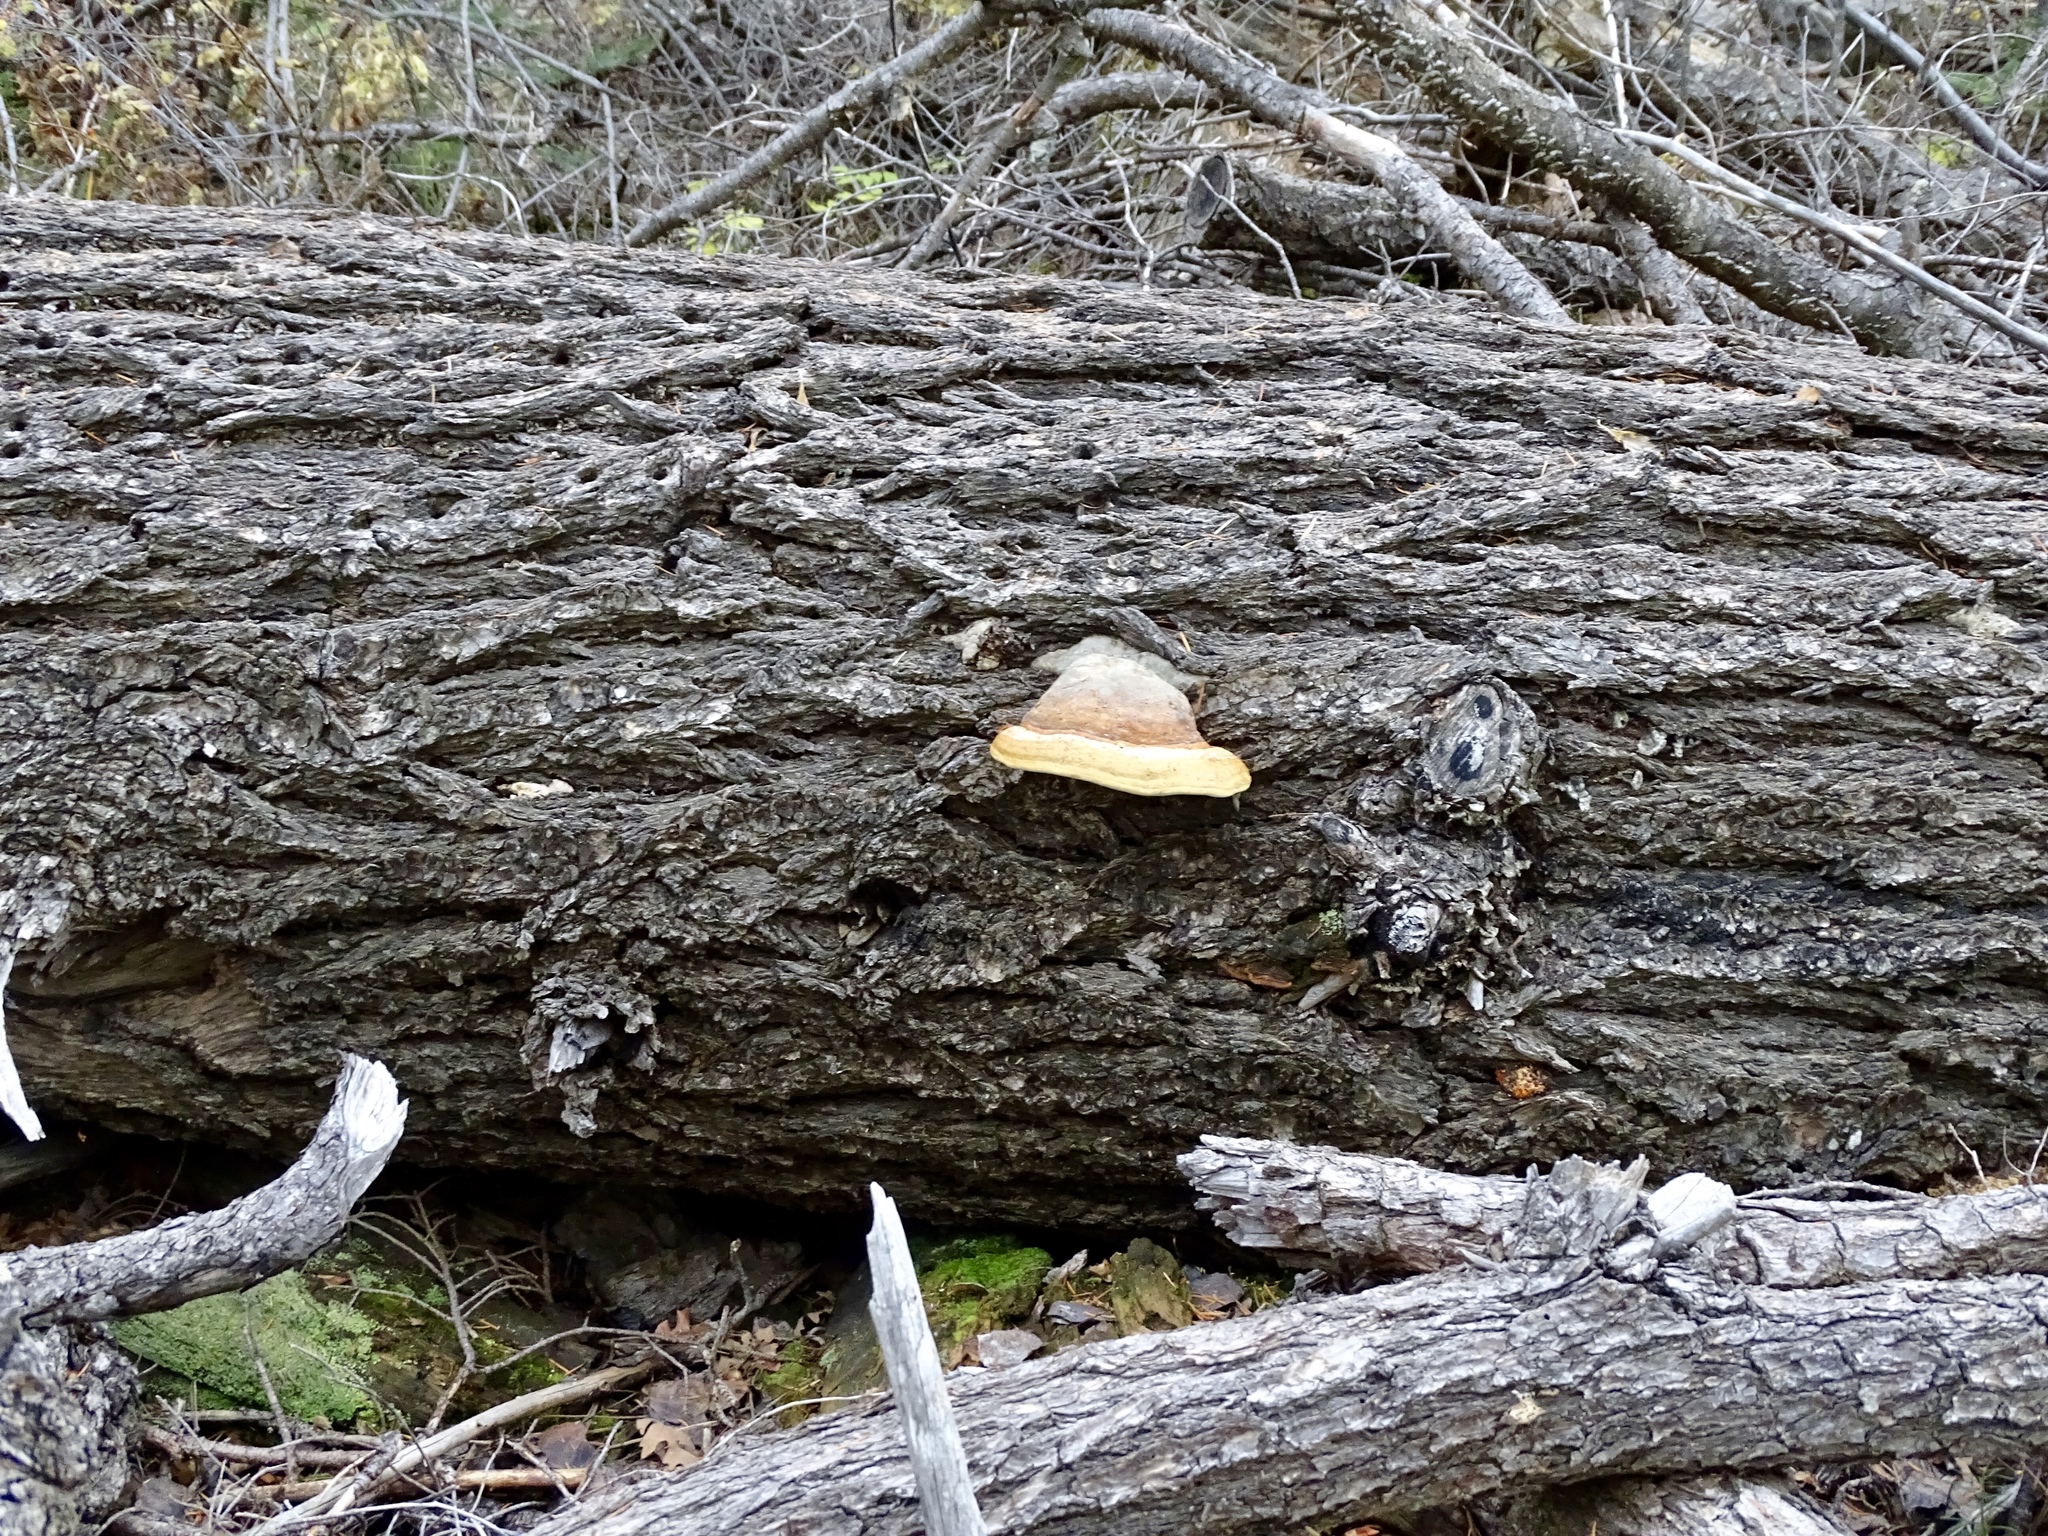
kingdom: Fungi
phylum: Basidiomycota
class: Agaricomycetes
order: Polyporales
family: Fomitopsidaceae
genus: Fomitopsis
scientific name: Fomitopsis schrenkii
